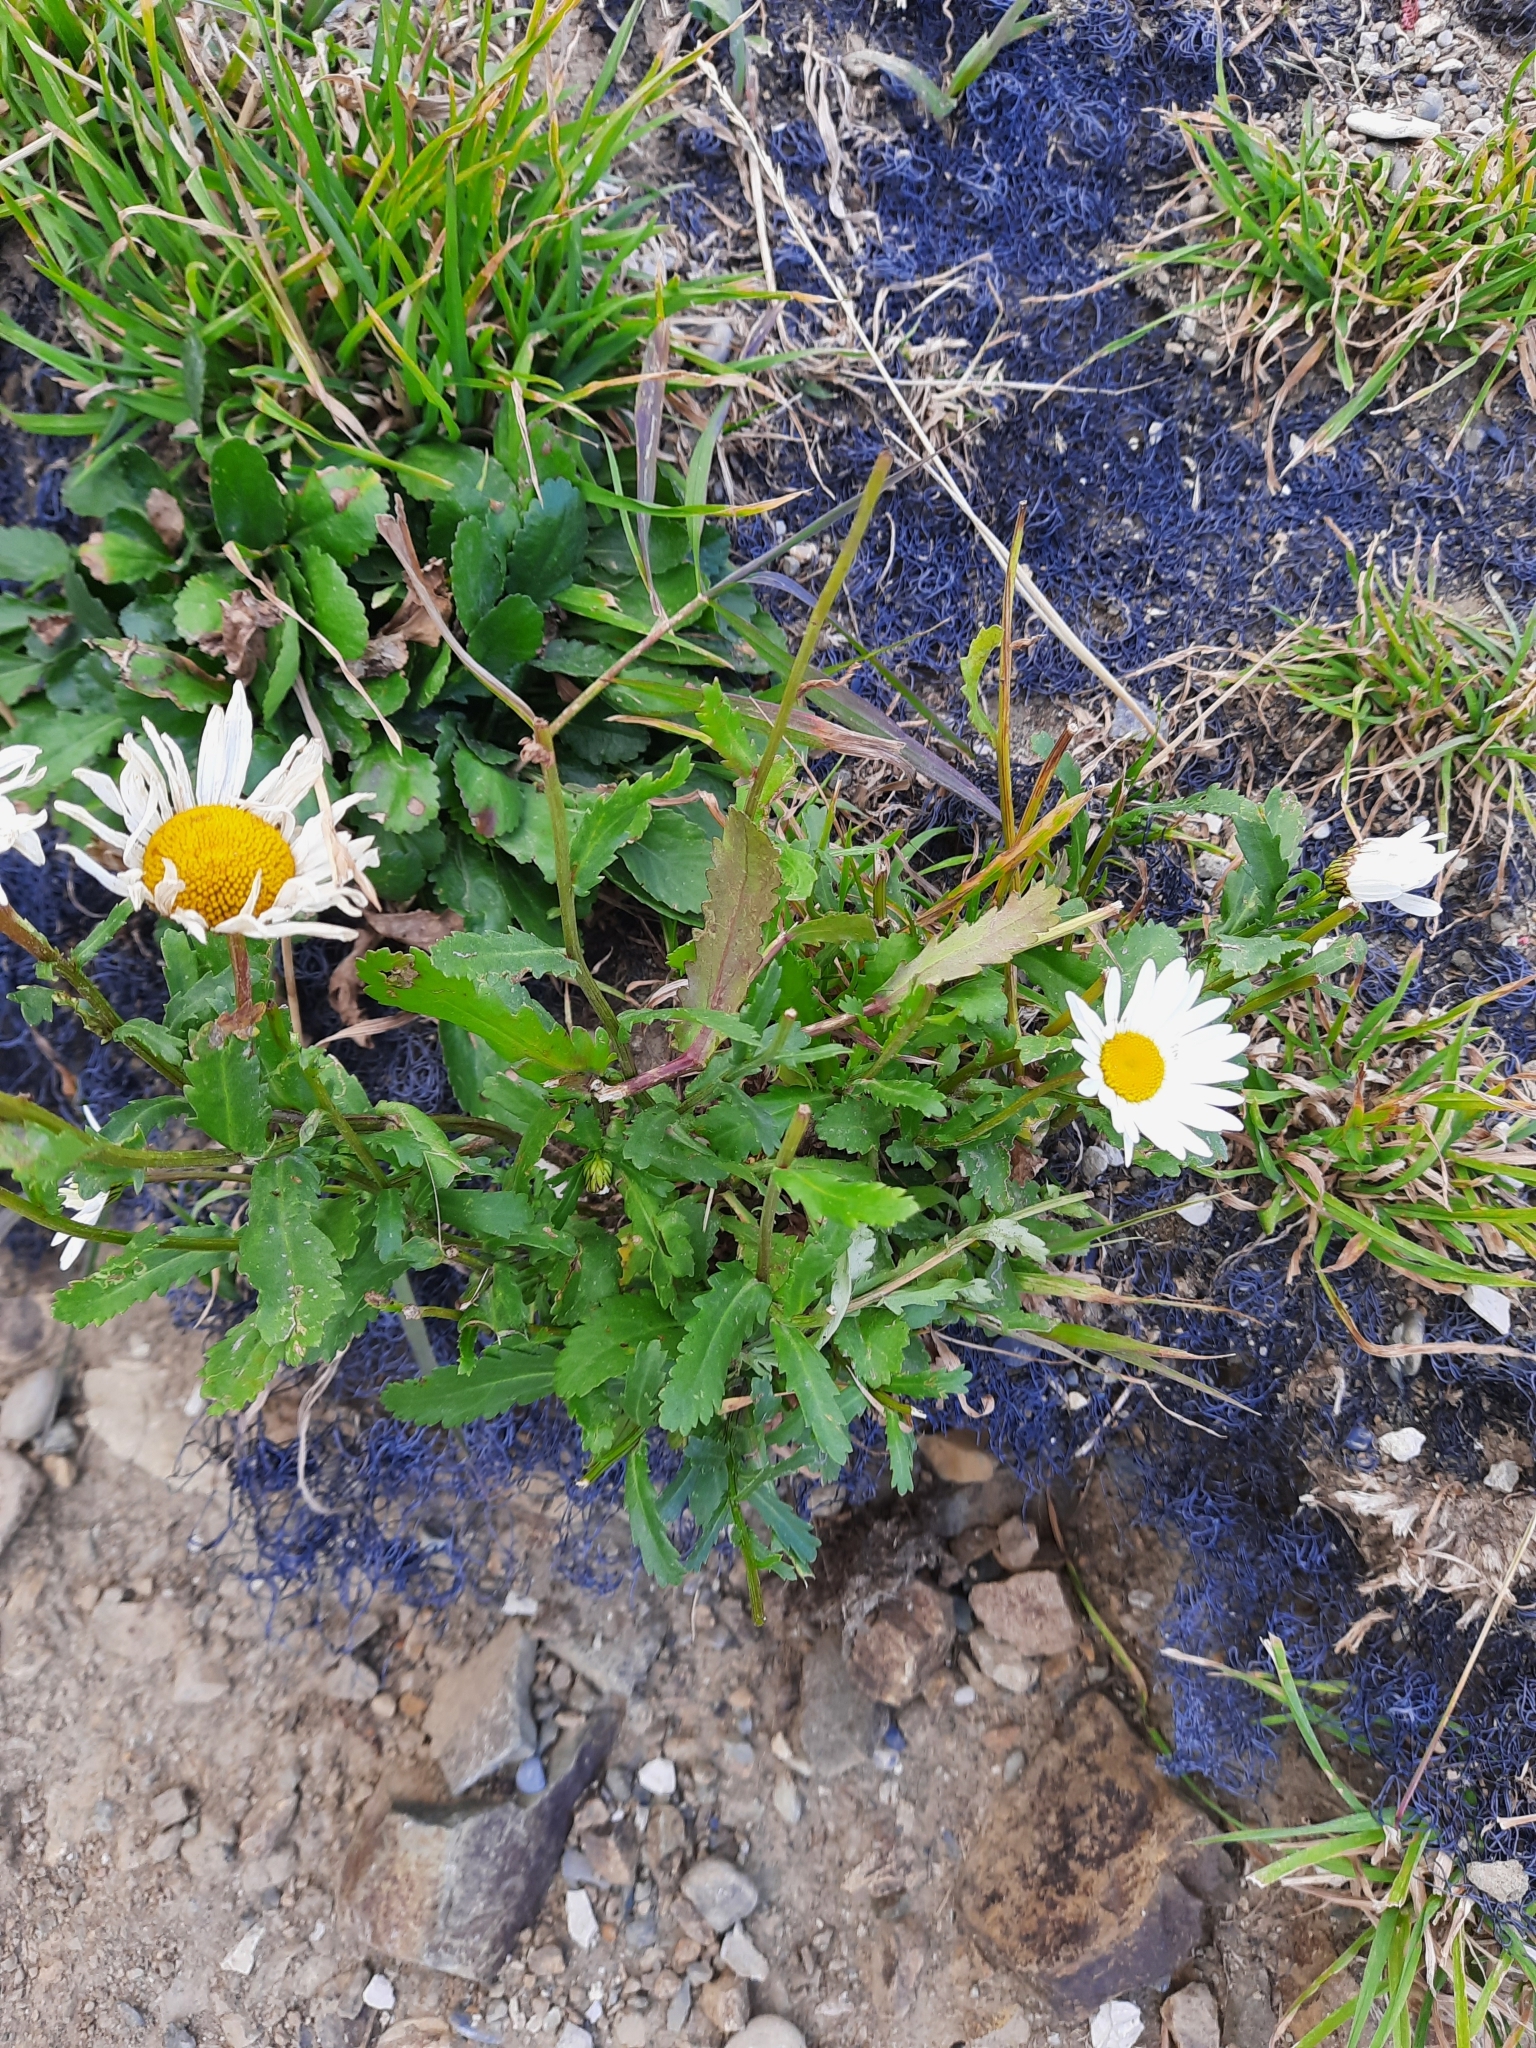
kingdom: Plantae
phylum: Tracheophyta
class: Magnoliopsida
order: Asterales
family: Asteraceae
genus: Leucanthemum
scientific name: Leucanthemum vulgare
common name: Oxeye daisy
